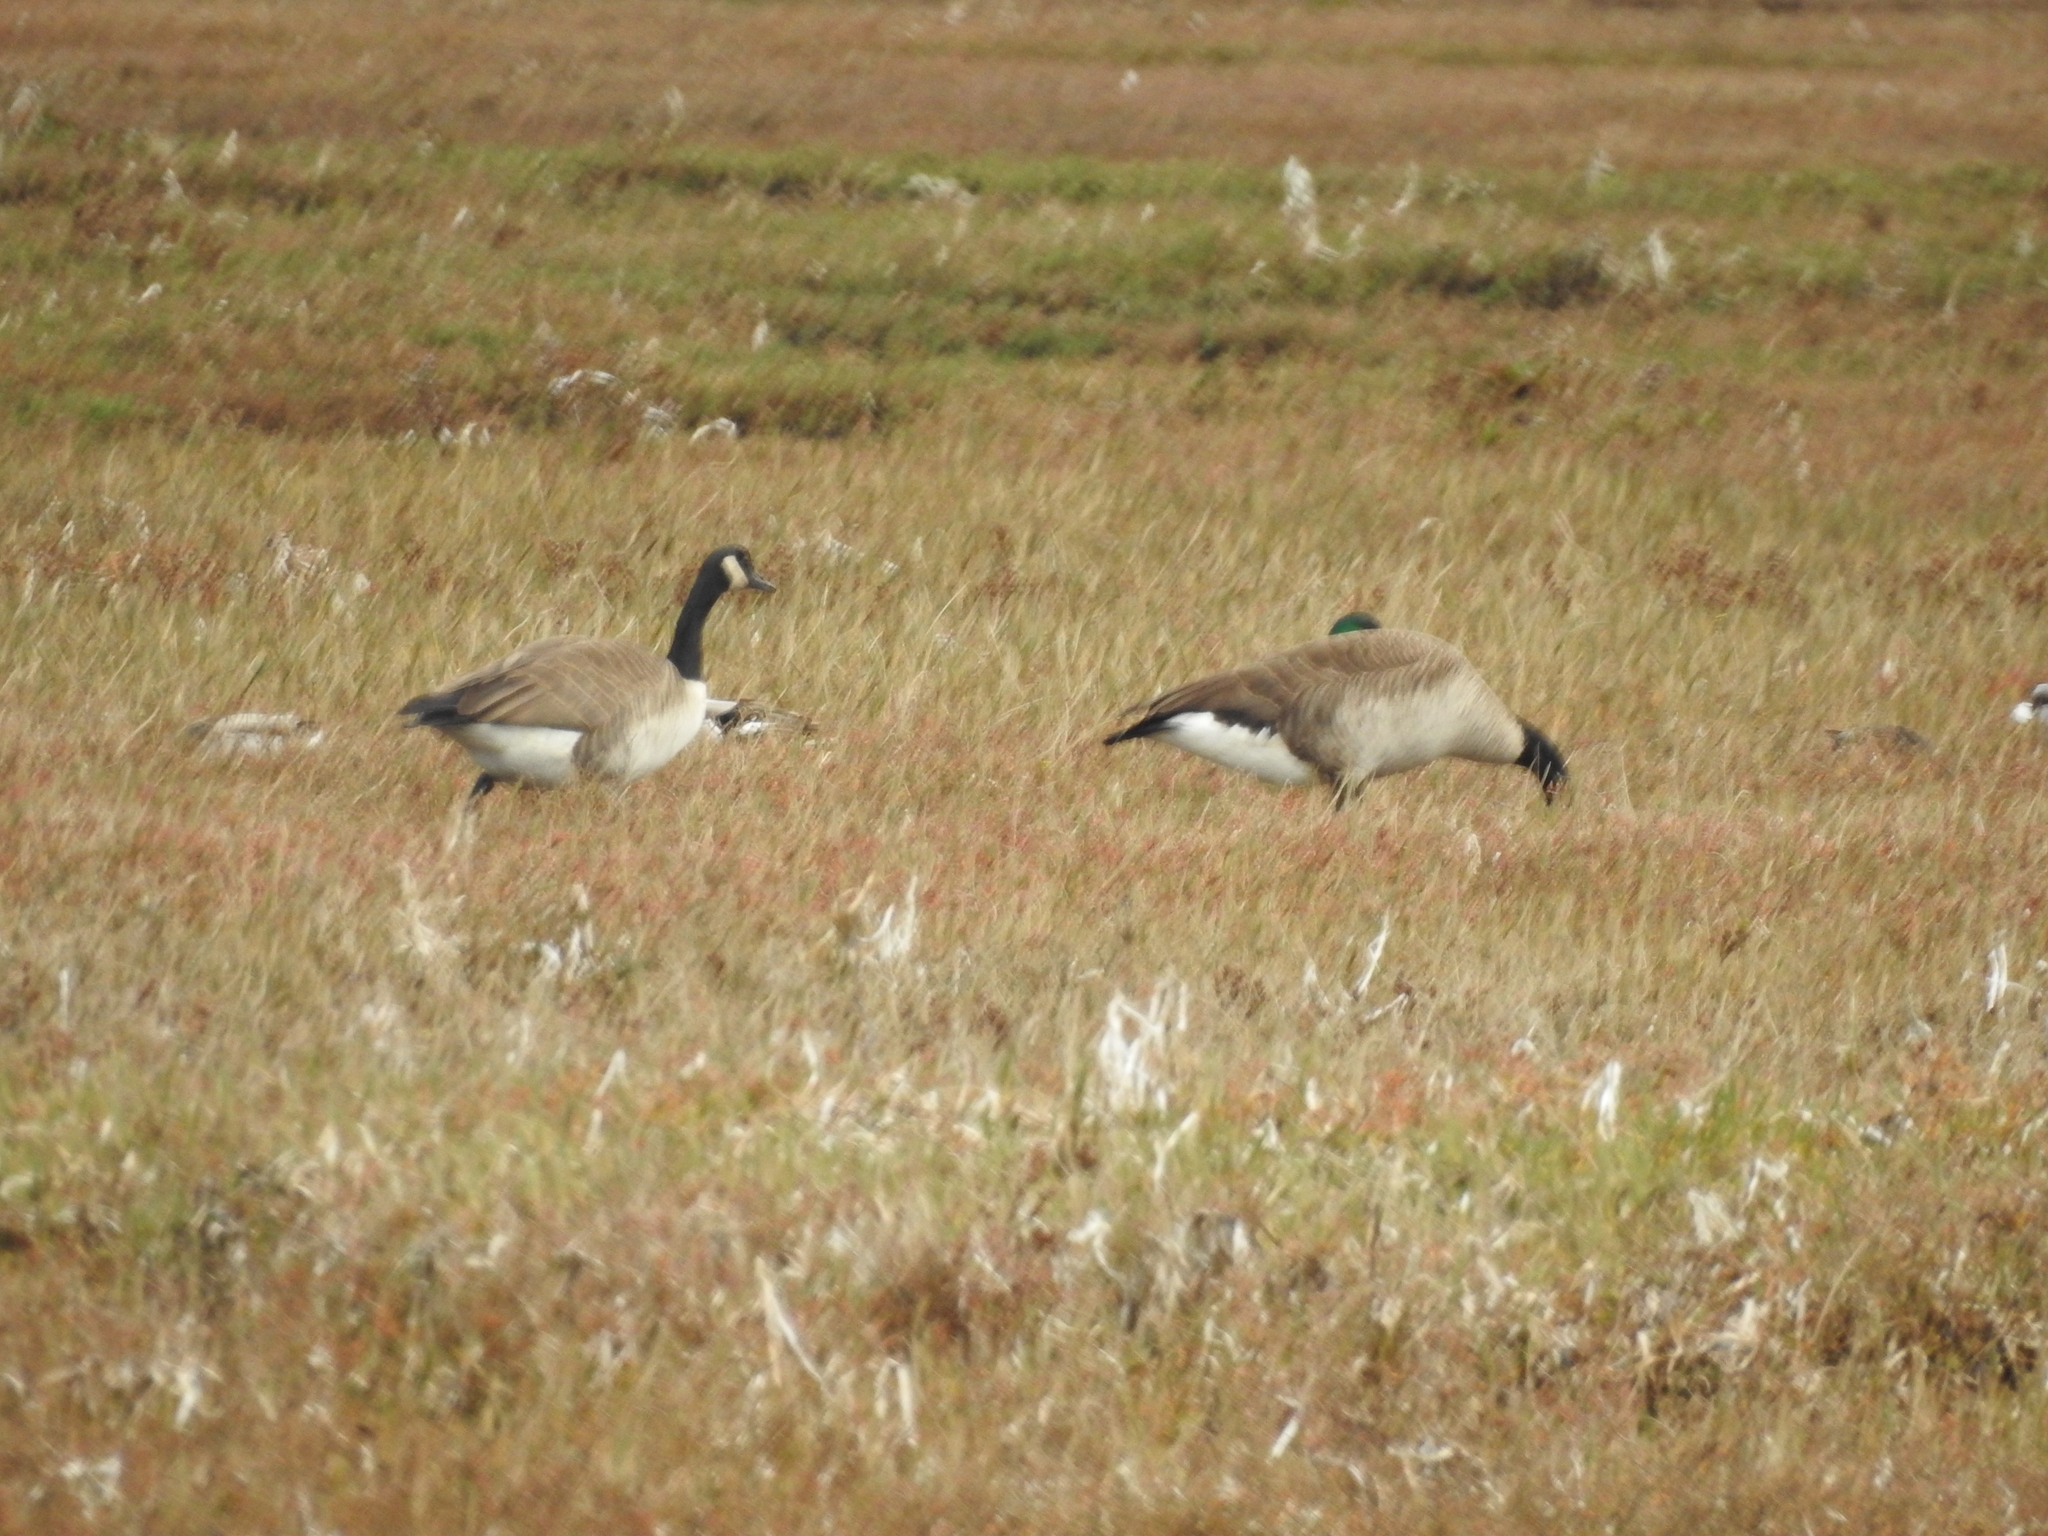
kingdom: Animalia
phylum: Chordata
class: Aves
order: Anseriformes
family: Anatidae
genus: Branta
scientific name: Branta canadensis
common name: Canada goose
